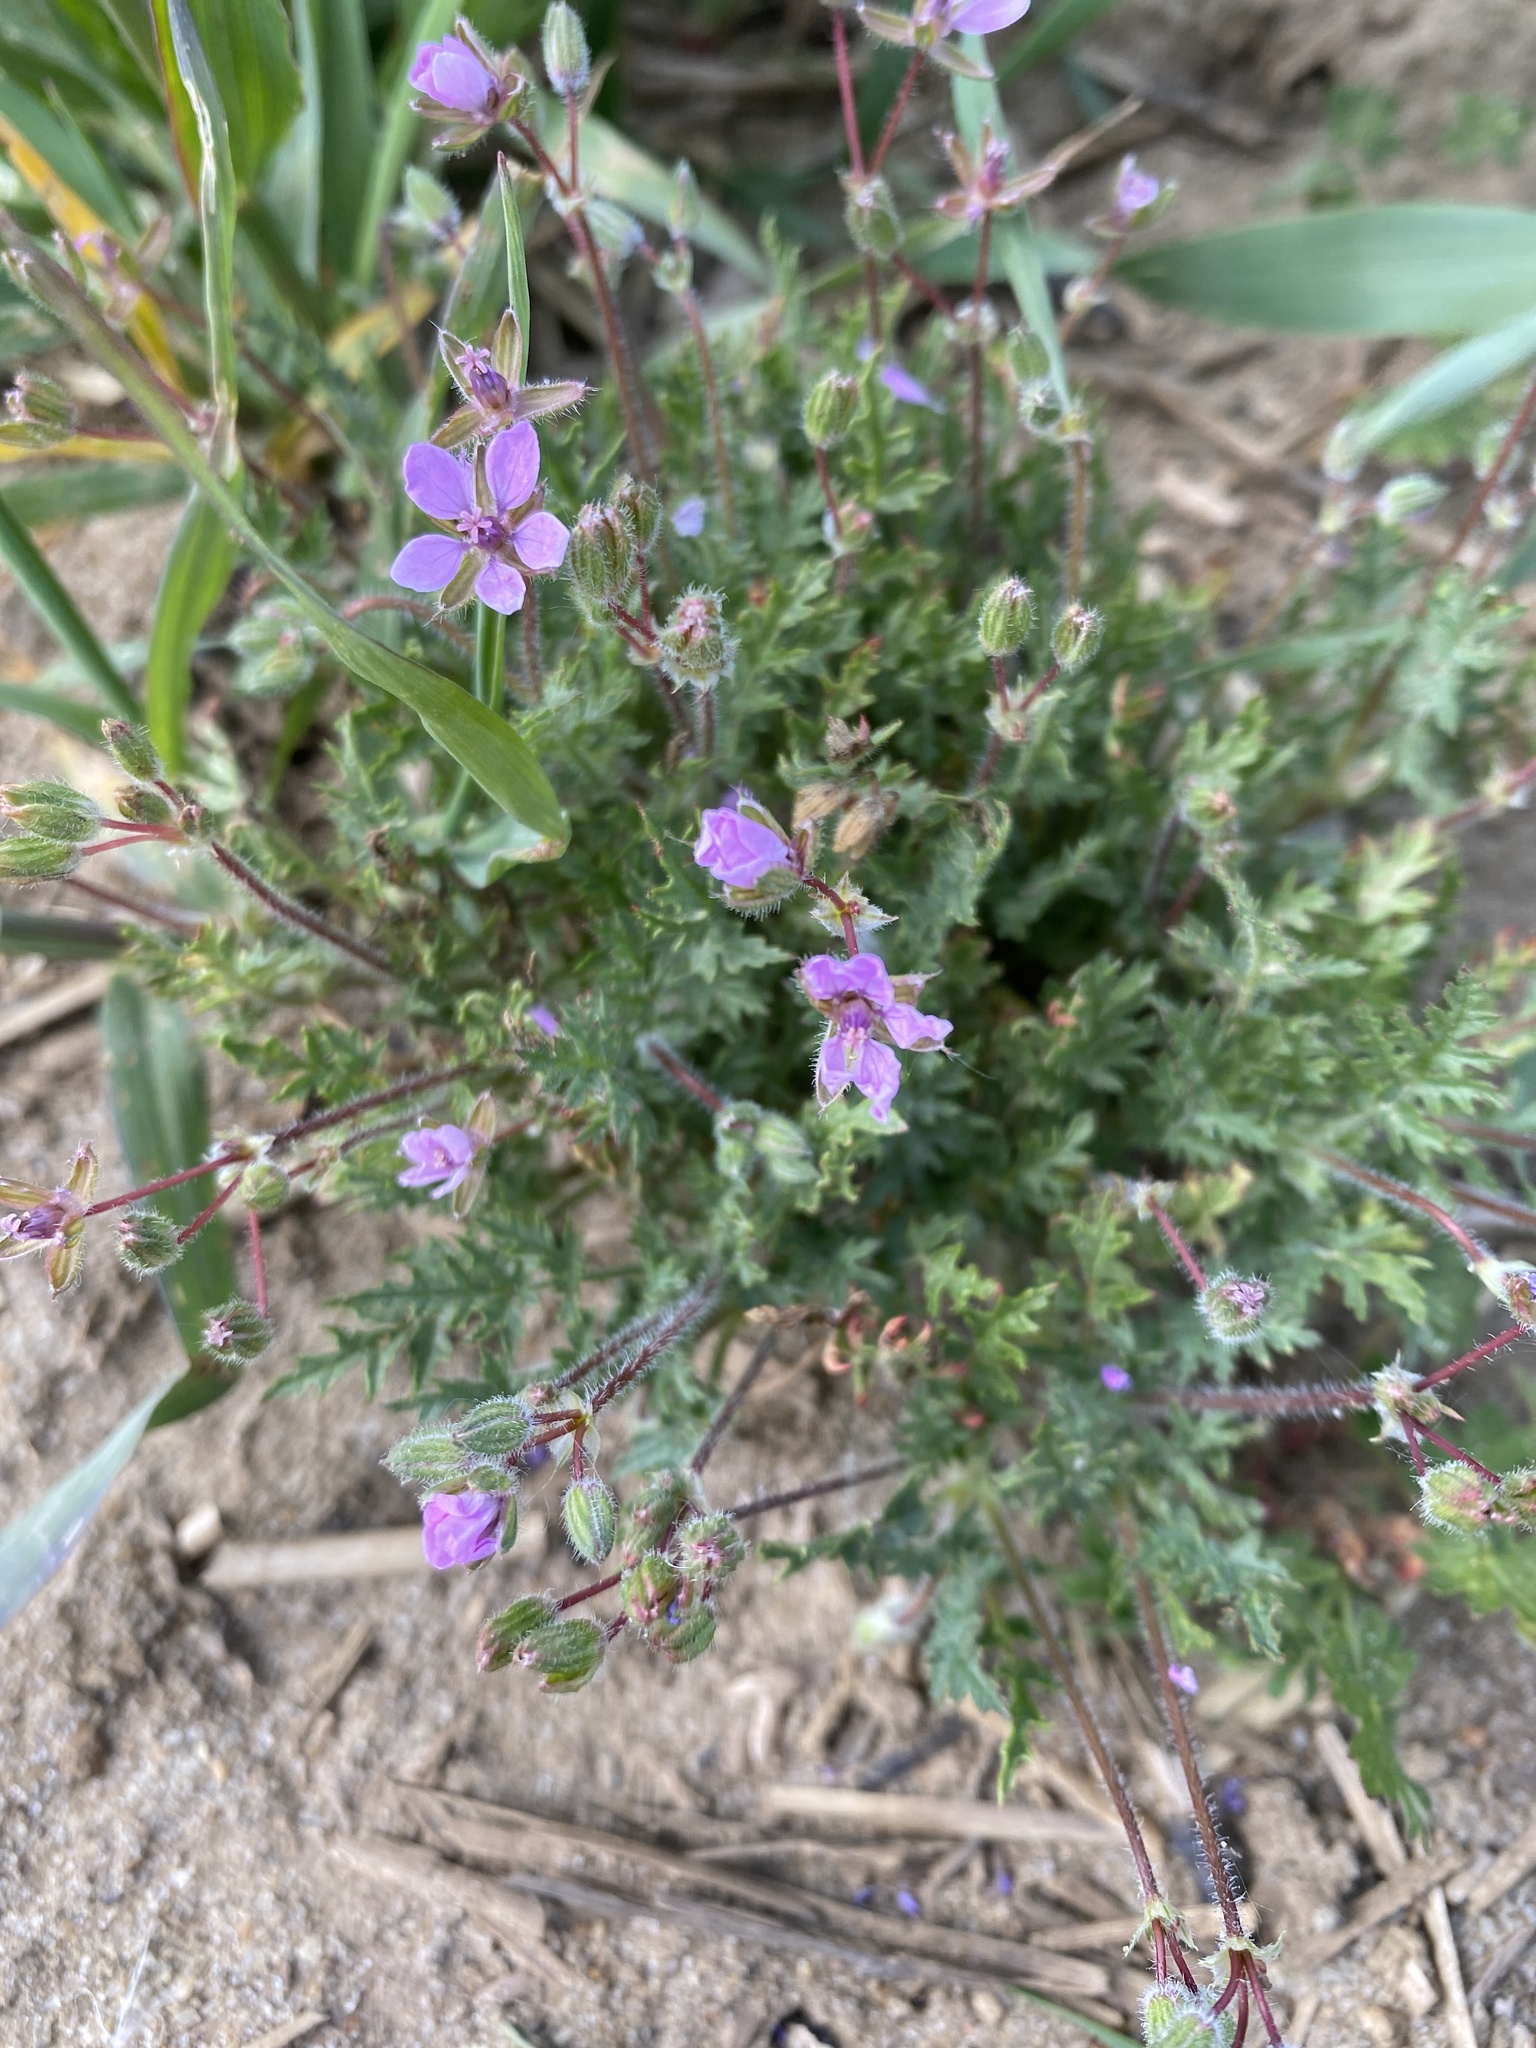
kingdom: Plantae
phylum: Tracheophyta
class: Magnoliopsida
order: Geraniales
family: Geraniaceae
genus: Erodium
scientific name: Erodium cicutarium
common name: Common stork's-bill
